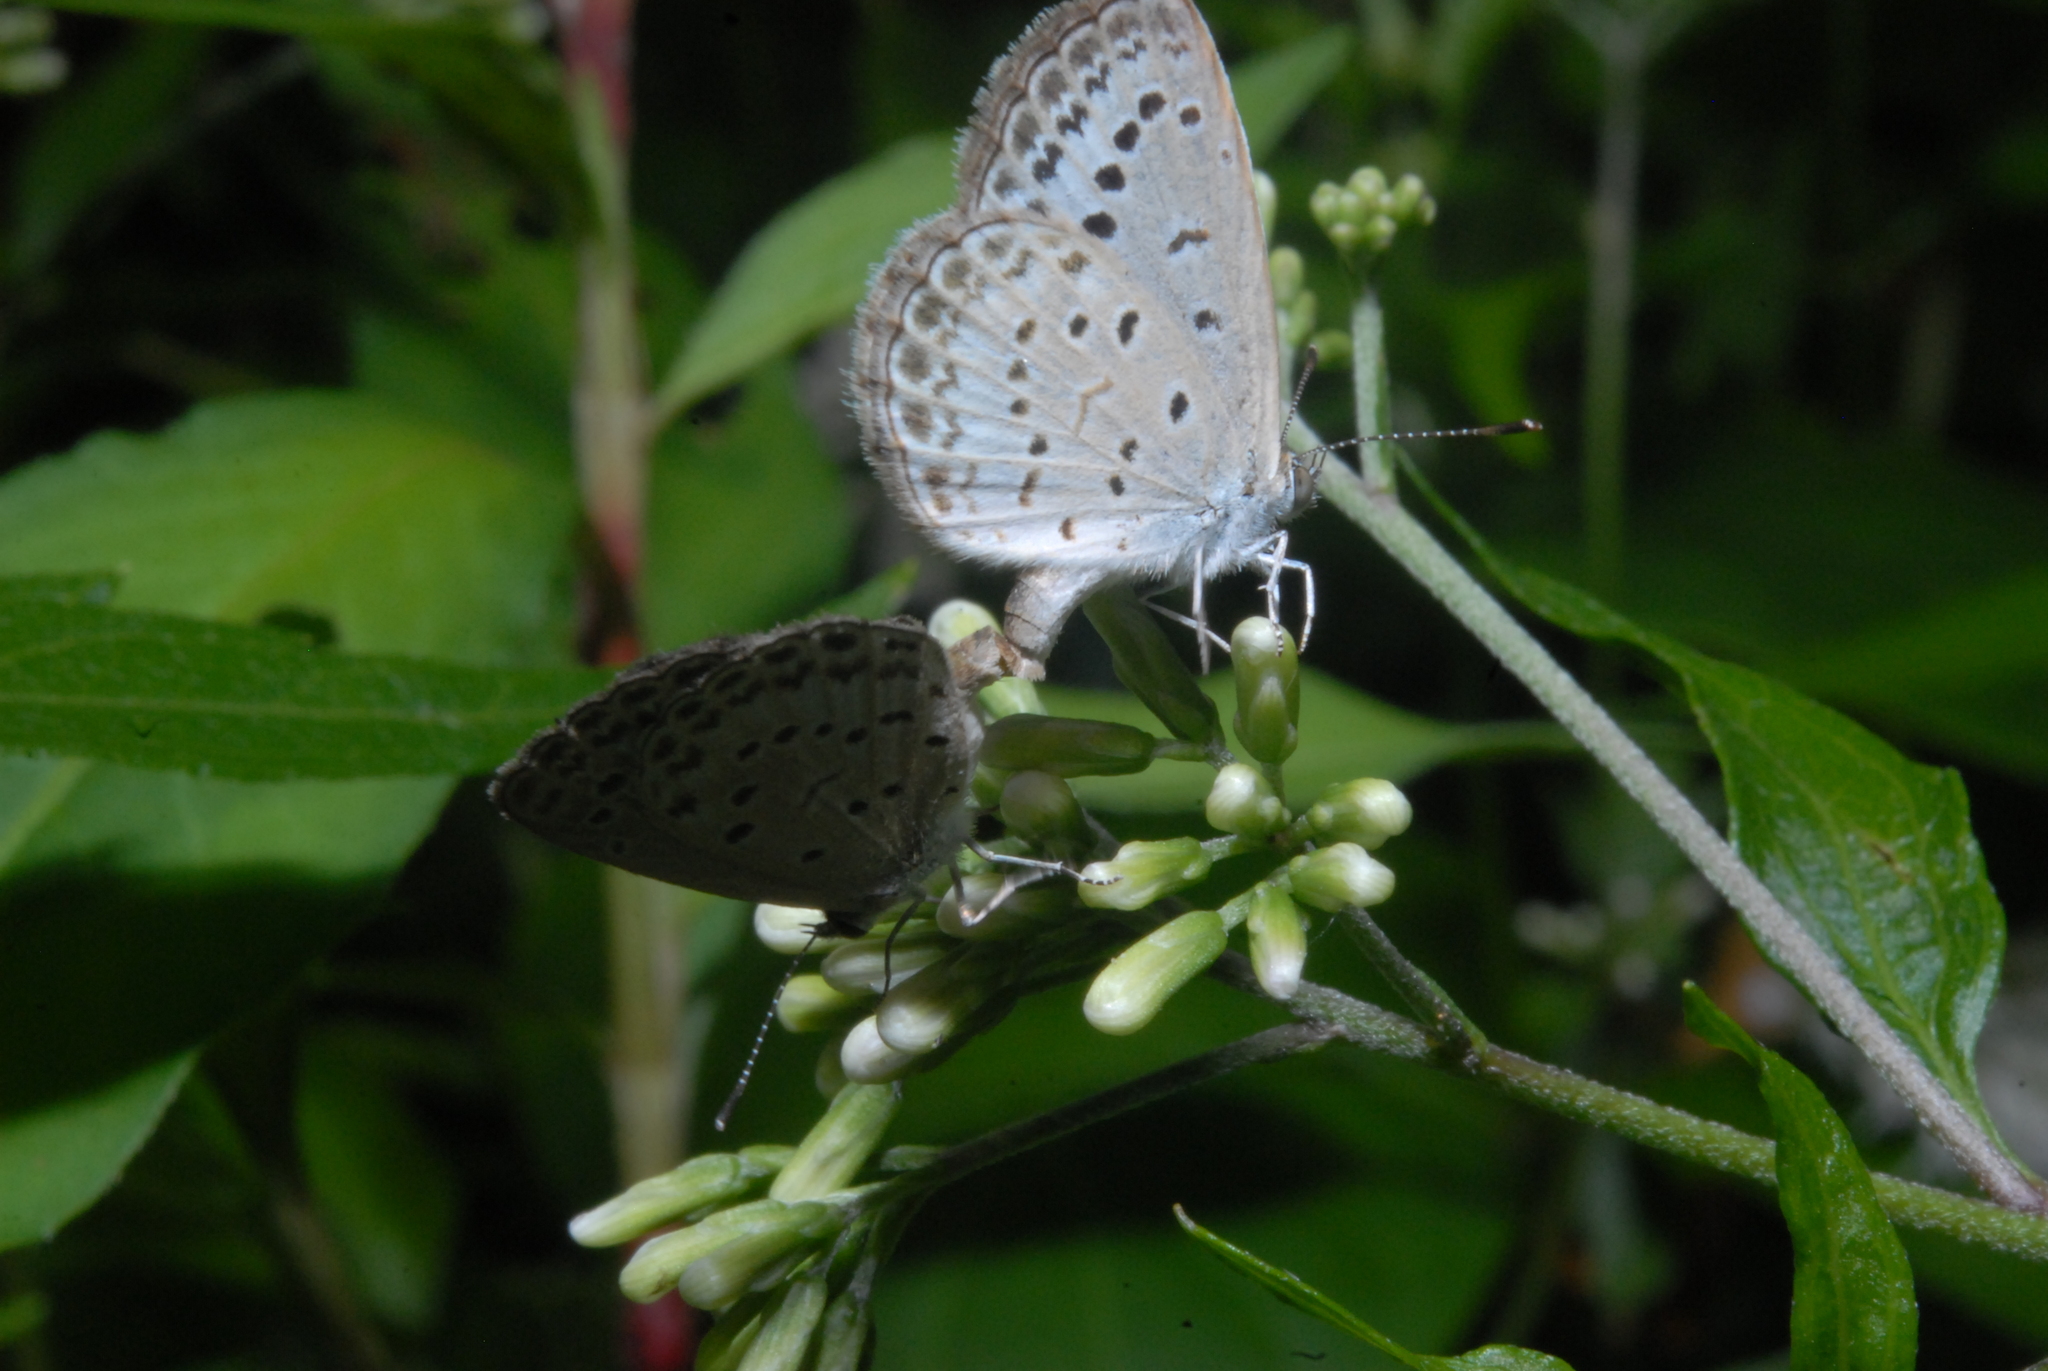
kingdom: Animalia
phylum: Arthropoda
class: Insecta
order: Lepidoptera
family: Lycaenidae
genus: Pseudozizeeria
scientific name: Pseudozizeeria maha
